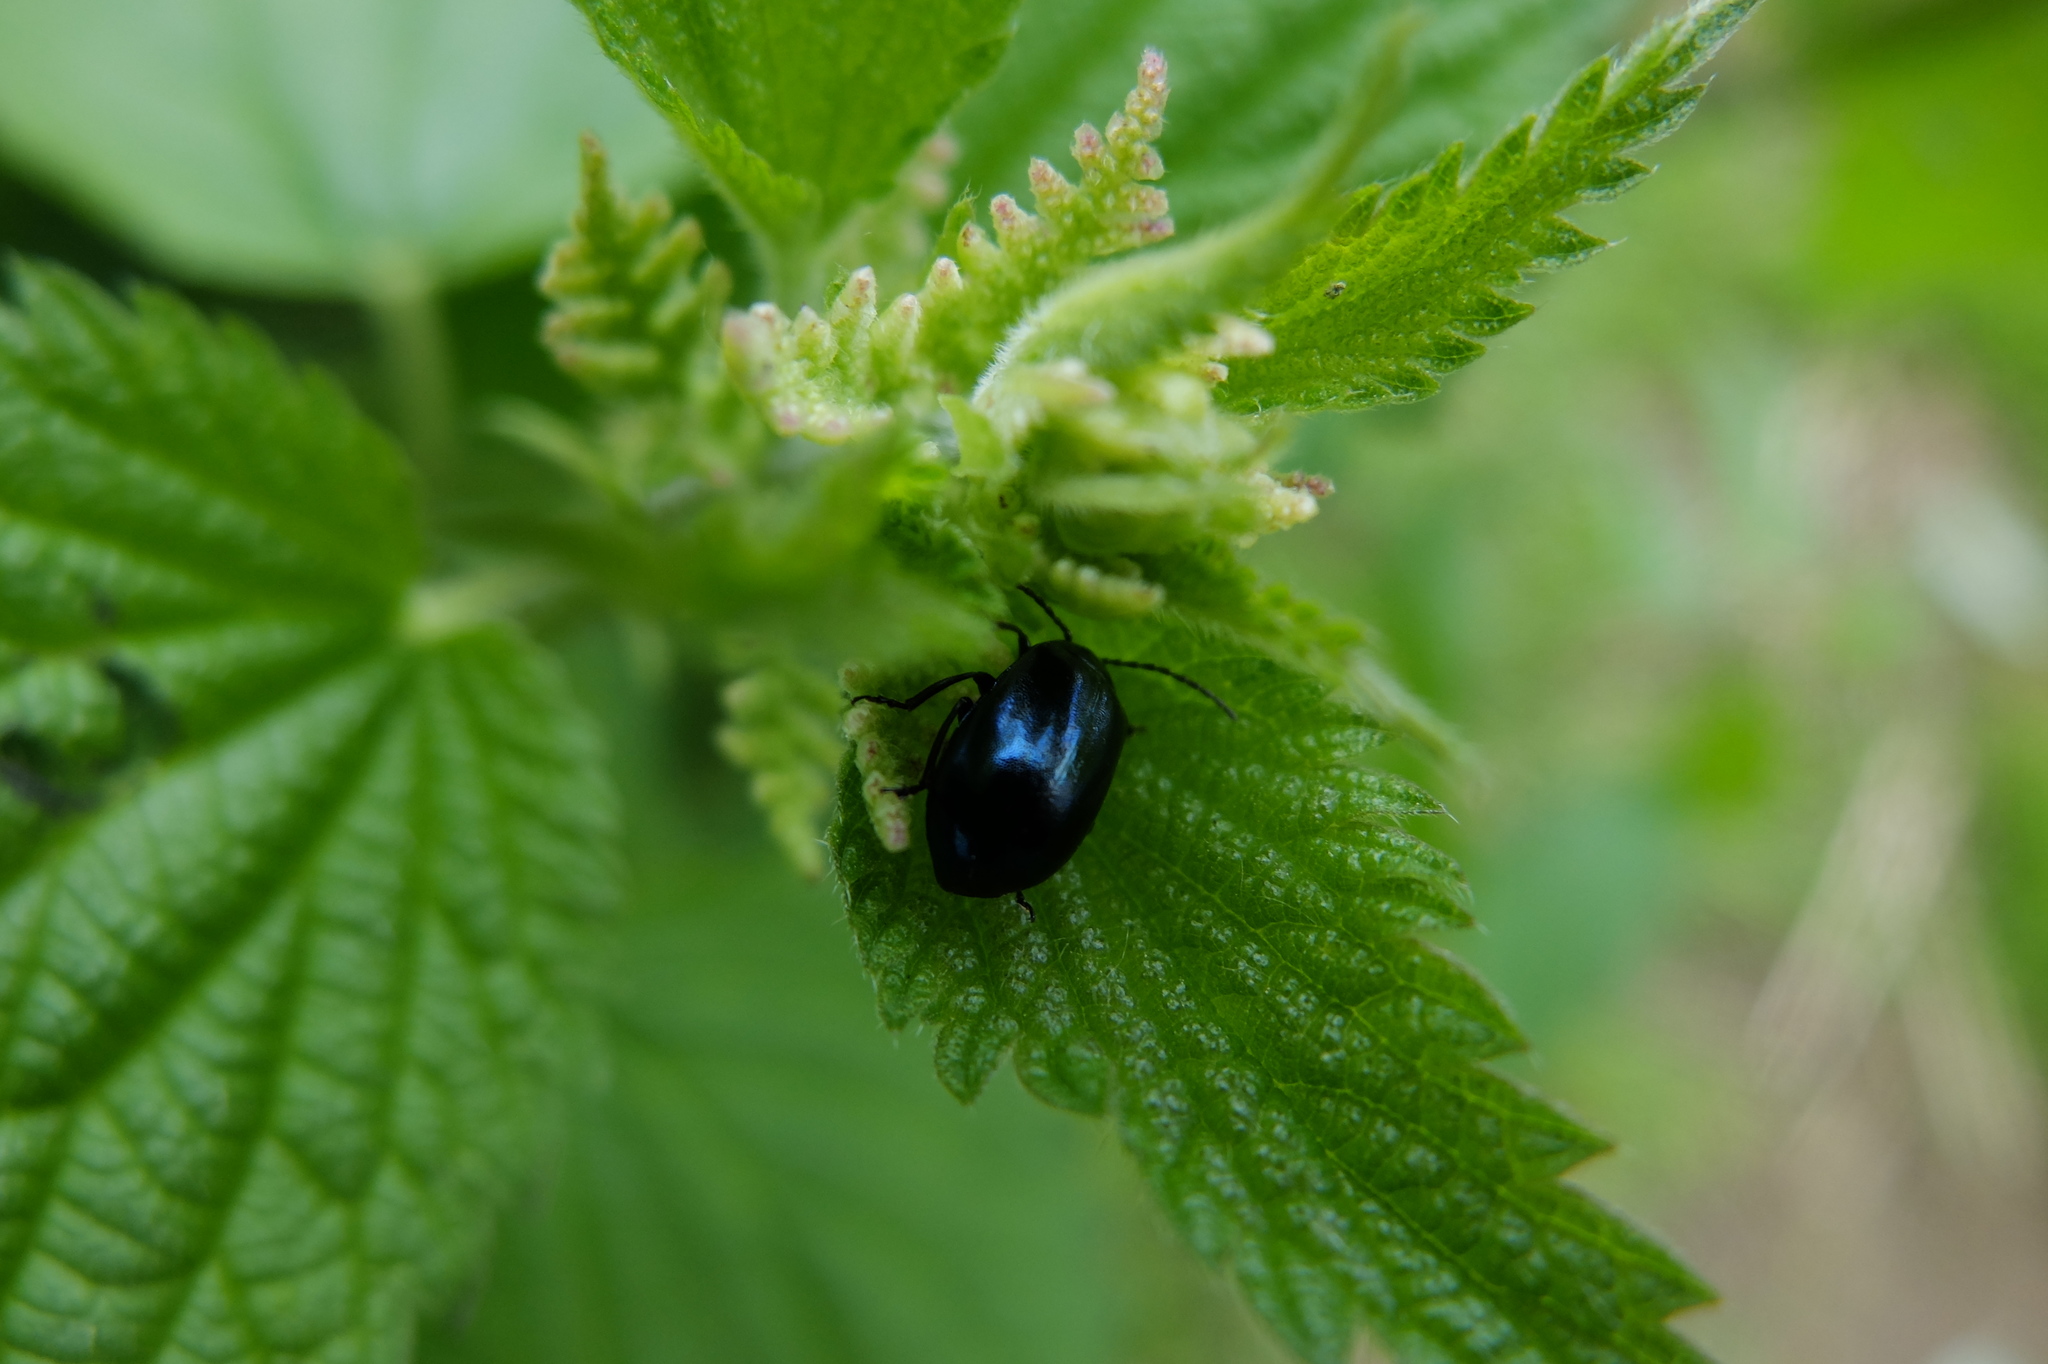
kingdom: Animalia
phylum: Arthropoda
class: Insecta
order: Coleoptera
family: Chrysomelidae
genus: Agelastica
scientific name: Agelastica alni
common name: Alder leaf beetle
